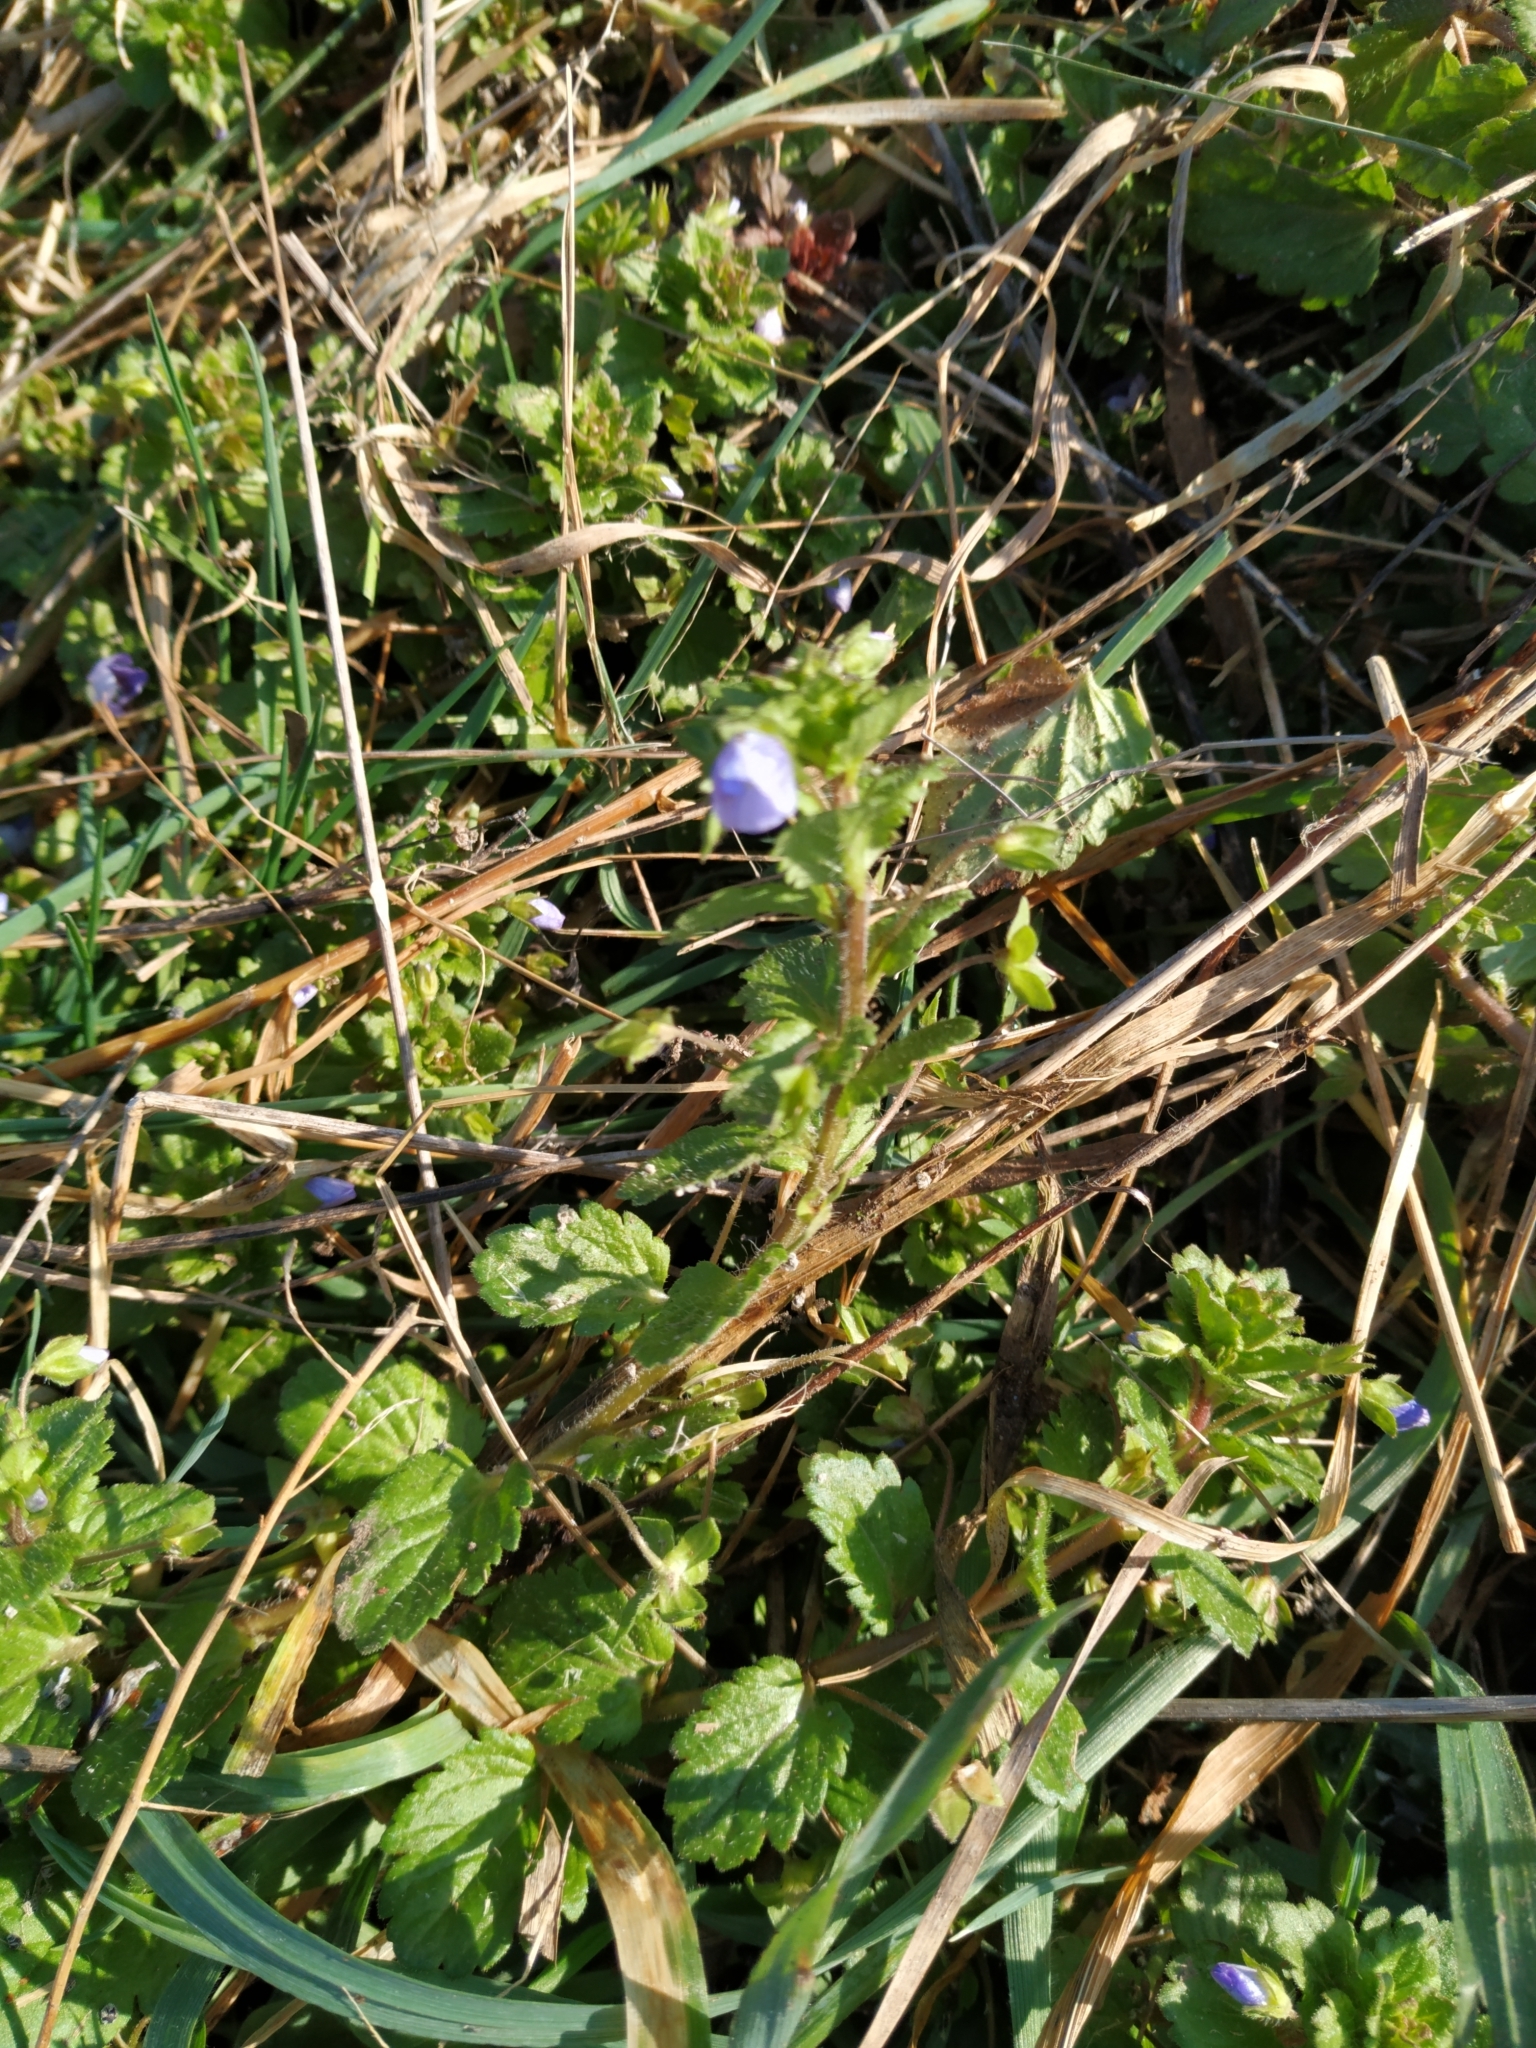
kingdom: Plantae
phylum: Tracheophyta
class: Magnoliopsida
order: Lamiales
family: Plantaginaceae
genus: Veronica
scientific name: Veronica persica
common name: Common field-speedwell
